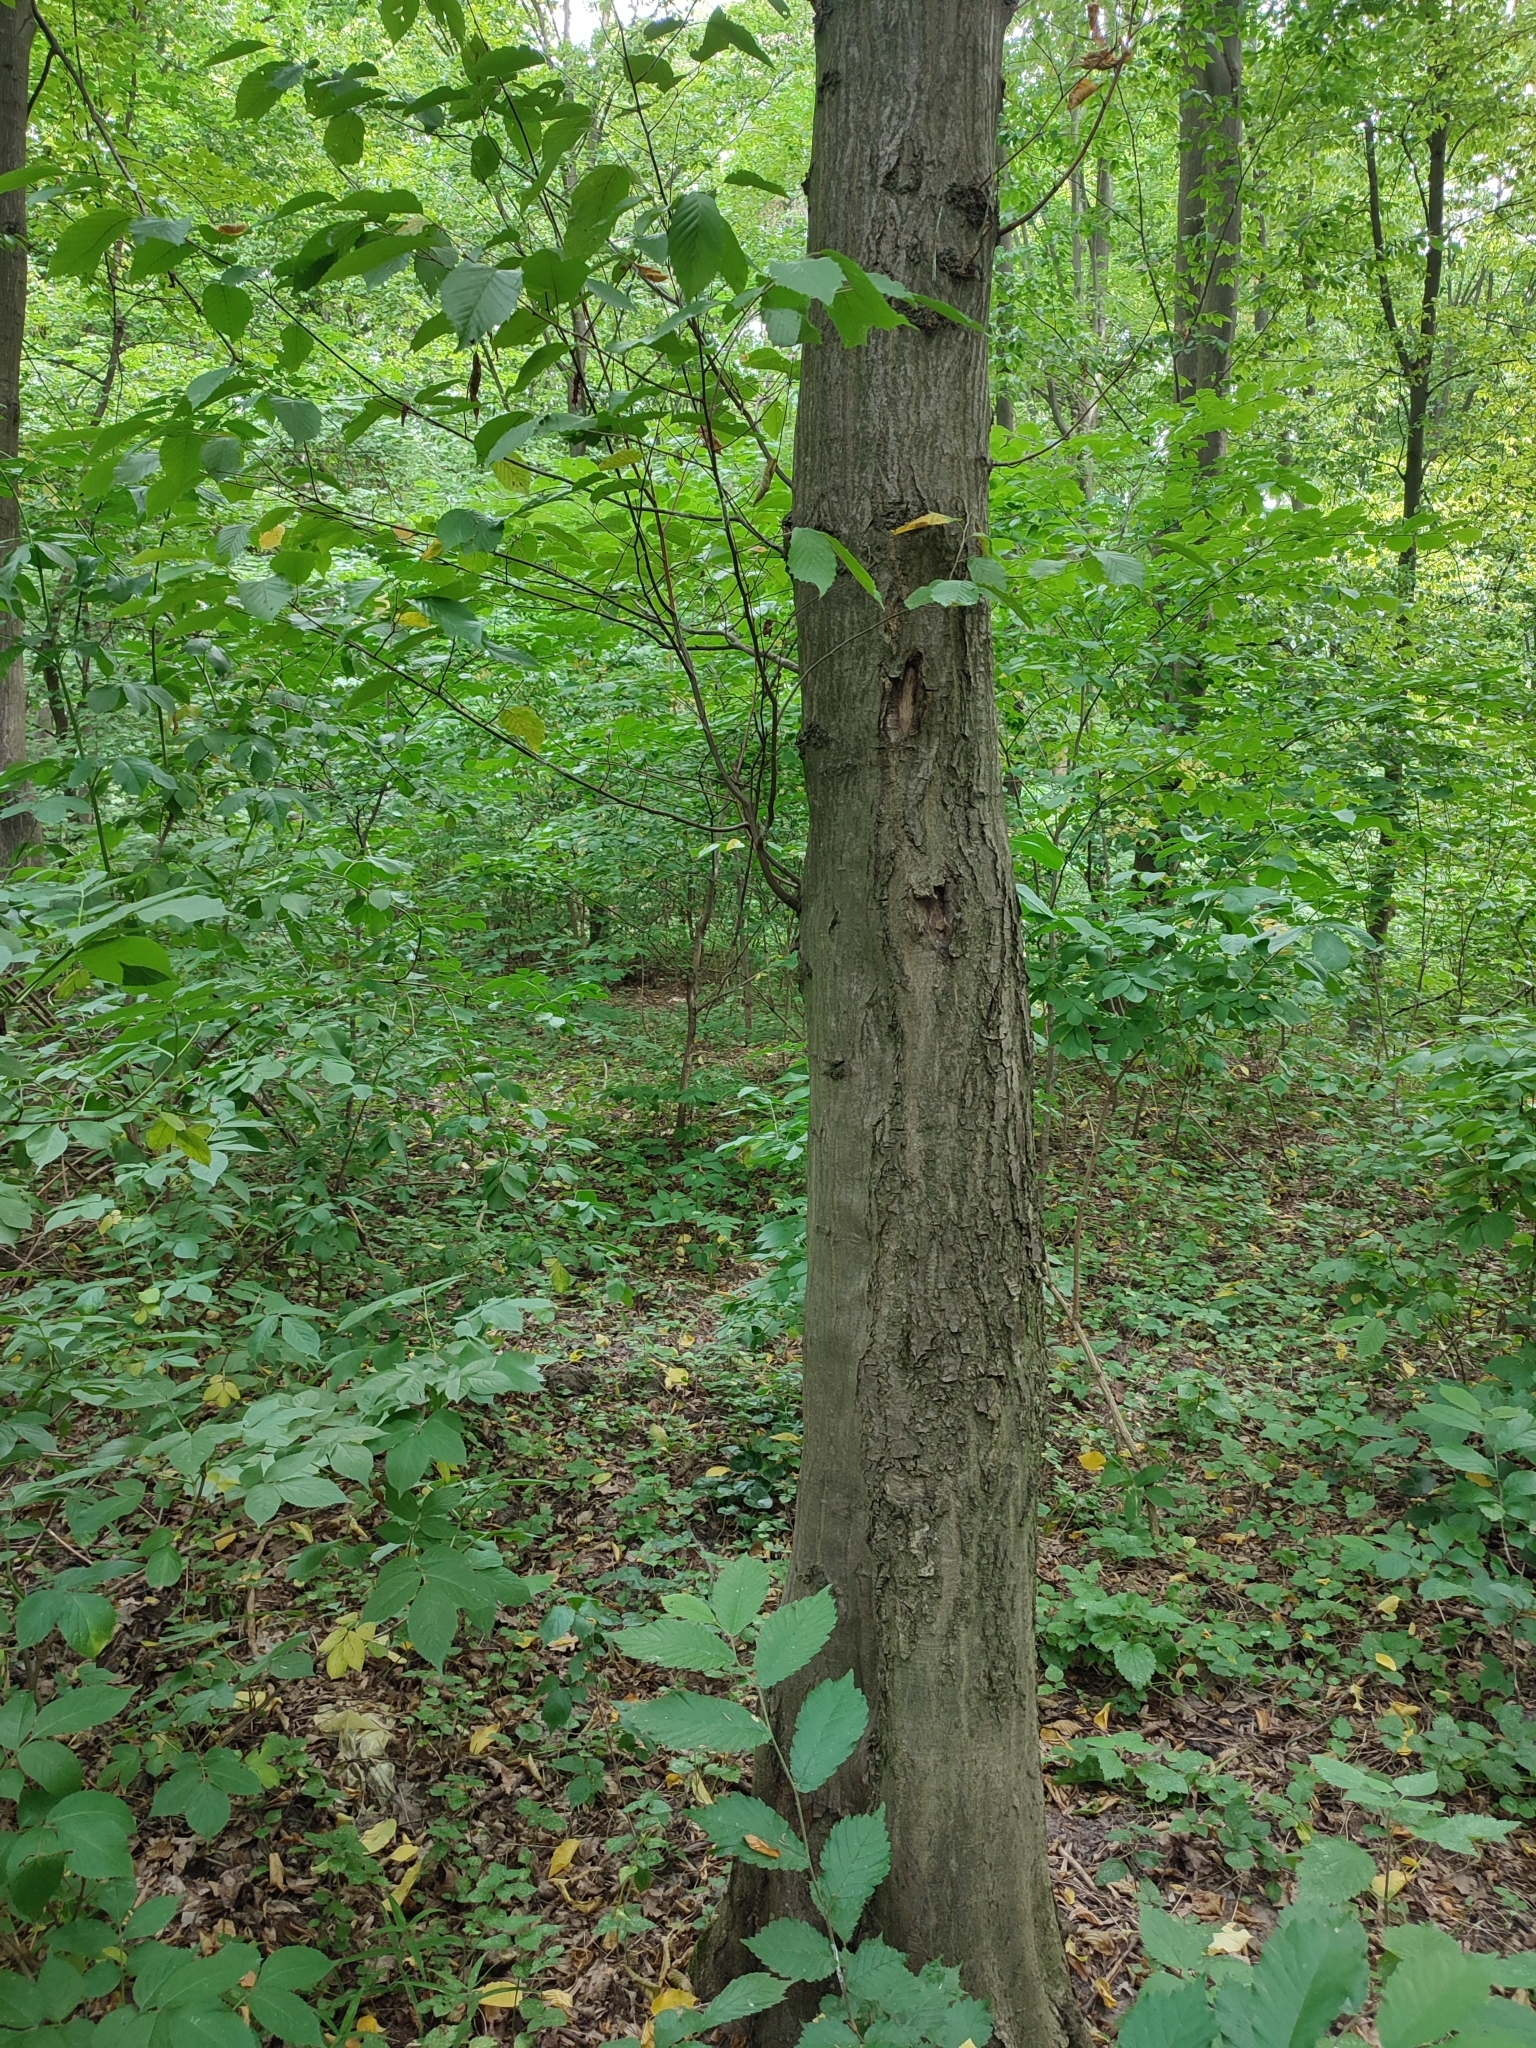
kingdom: Plantae
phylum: Tracheophyta
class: Magnoliopsida
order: Fagales
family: Betulaceae
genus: Carpinus
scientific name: Carpinus betulus
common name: Hornbeam
